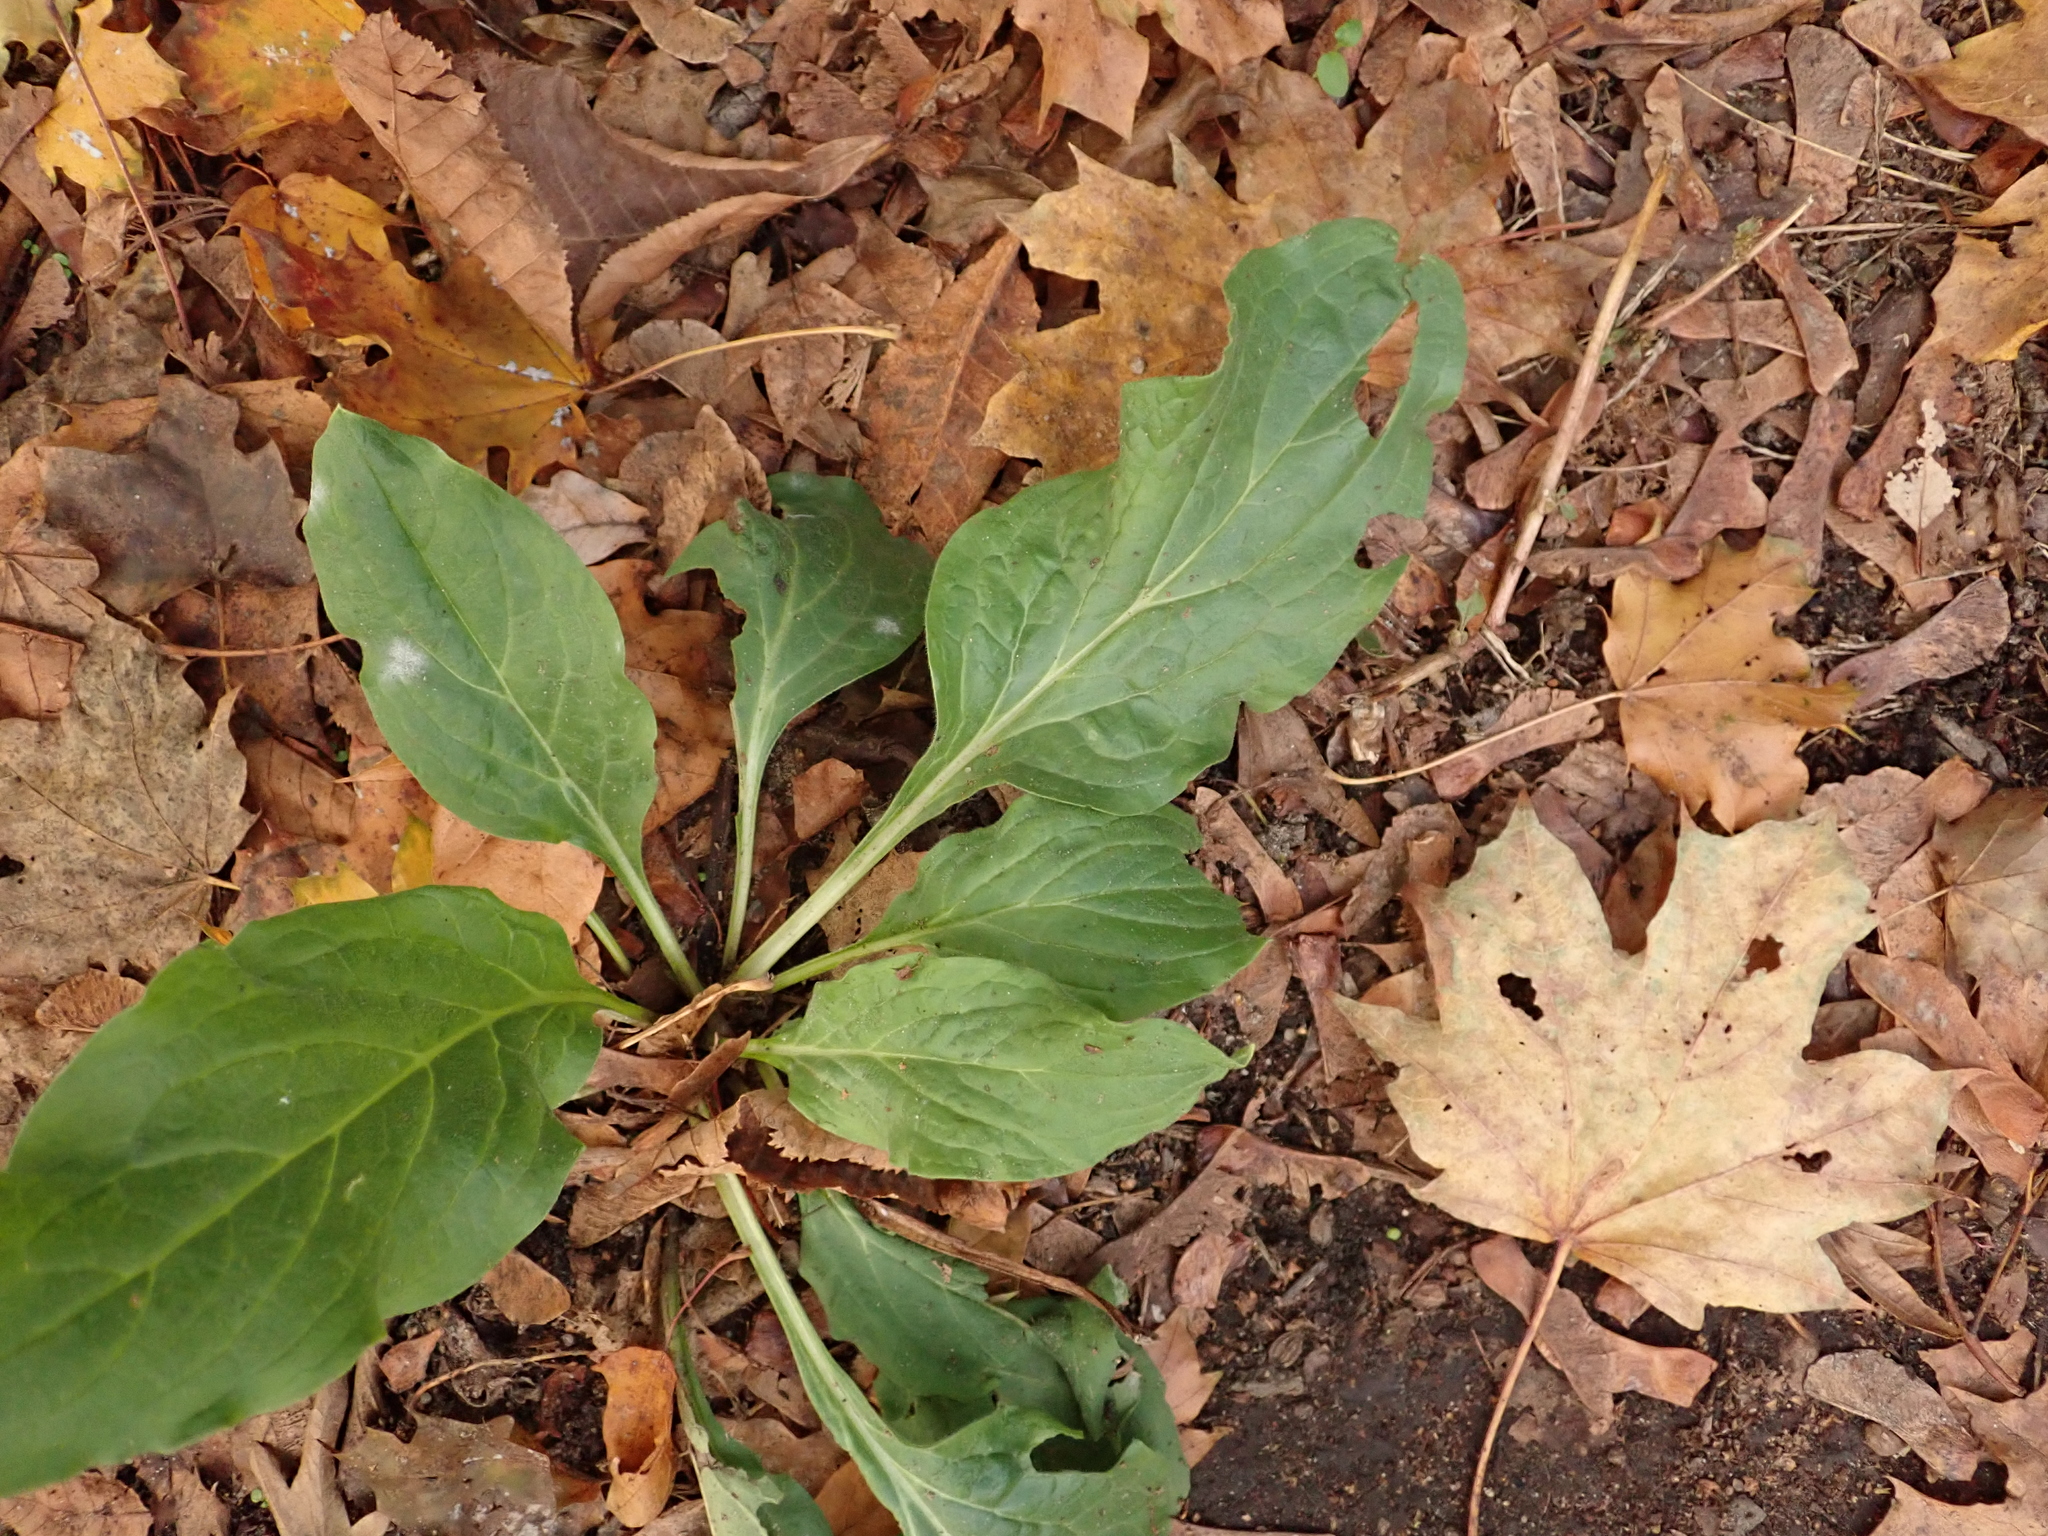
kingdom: Plantae
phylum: Tracheophyta
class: Magnoliopsida
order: Boraginales
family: Boraginaceae
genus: Cynoglossum
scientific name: Cynoglossum officinale
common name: Hound's-tongue
